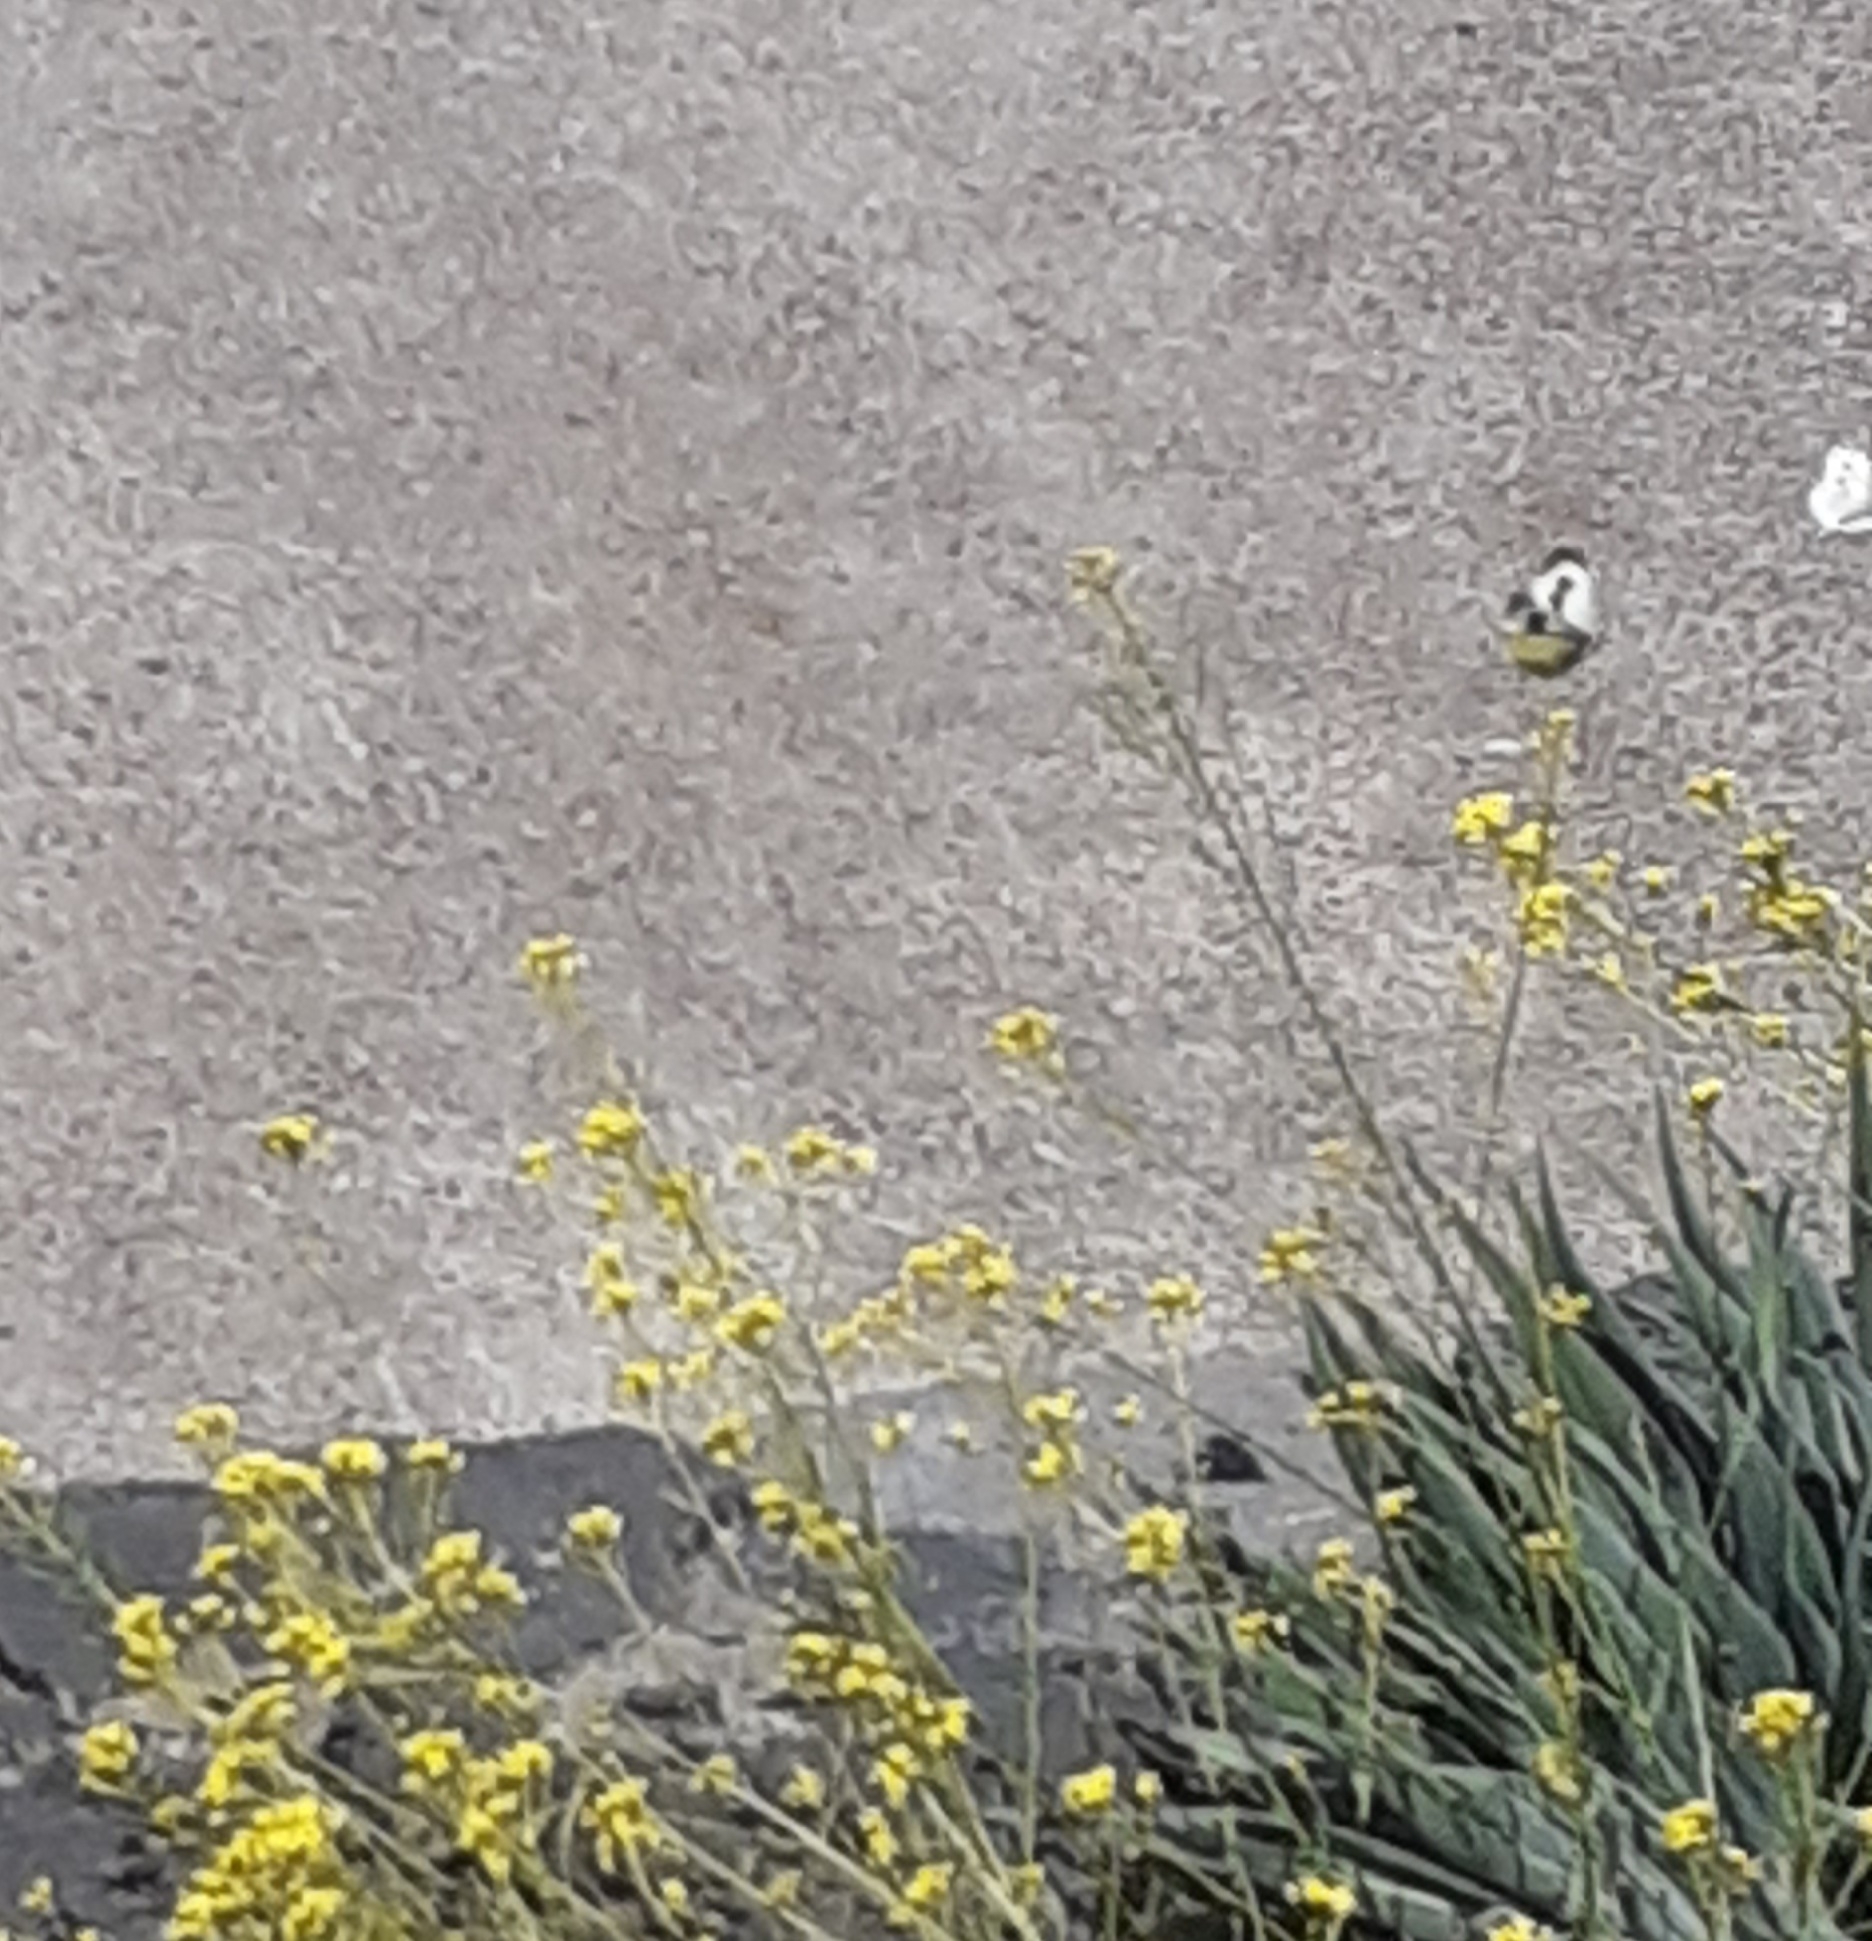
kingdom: Animalia
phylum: Arthropoda
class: Insecta
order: Lepidoptera
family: Pieridae
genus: Pieris
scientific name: Pieris cheiranthi
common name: Canary islands large white
